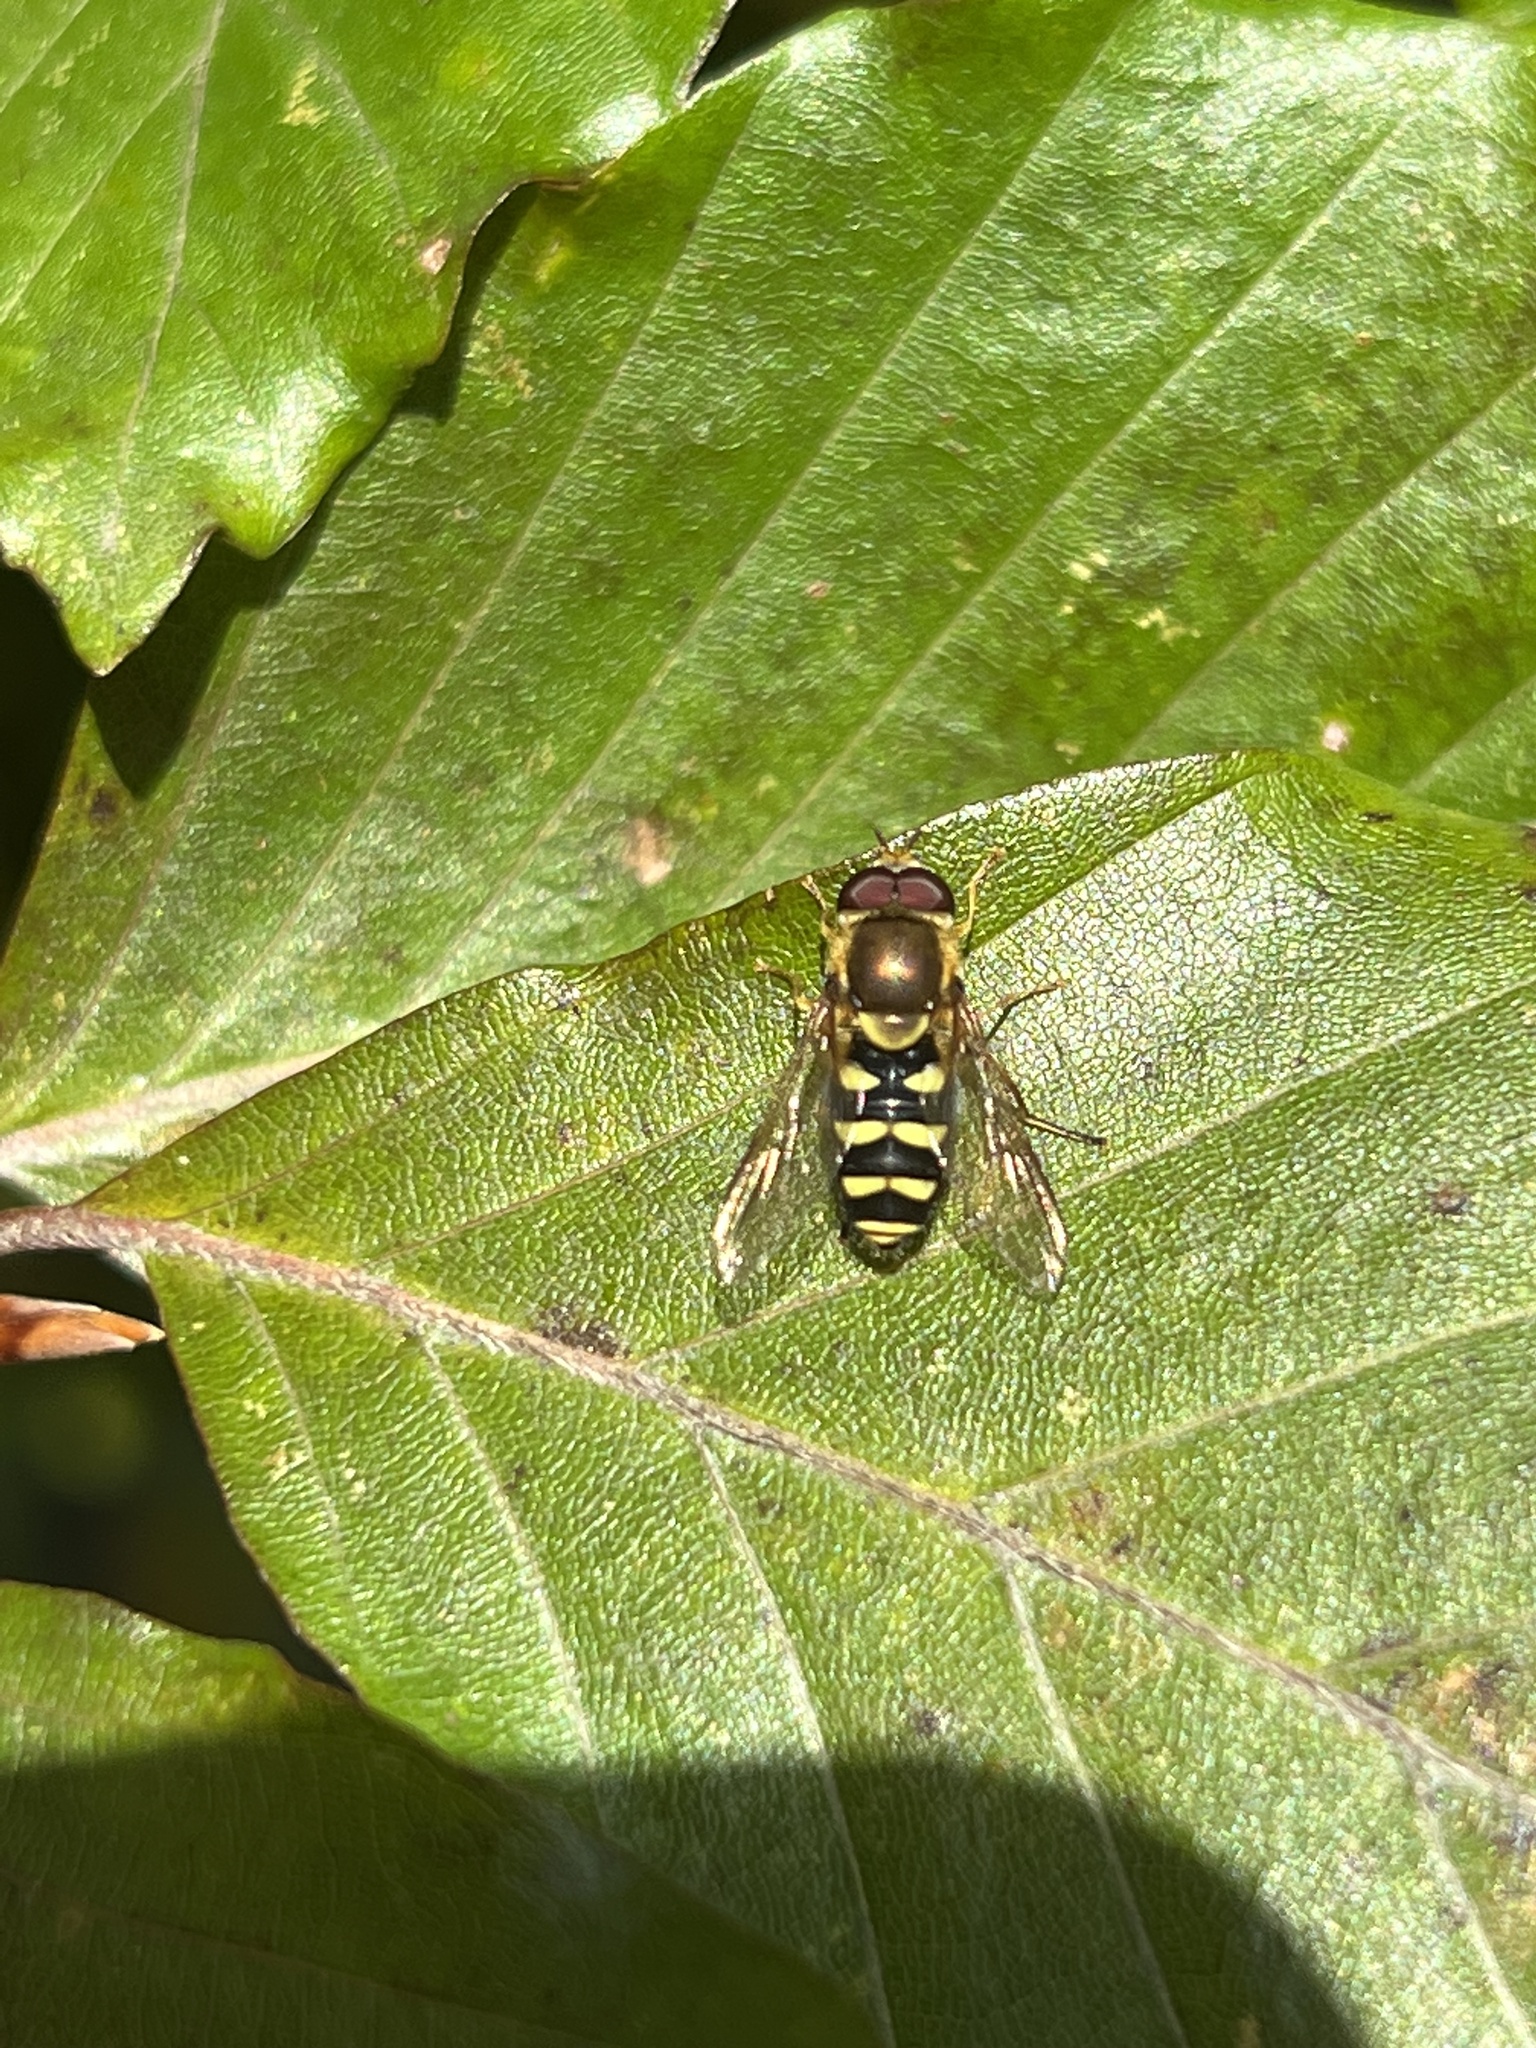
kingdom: Animalia
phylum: Arthropoda
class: Insecta
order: Diptera
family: Syrphidae
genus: Syrphus
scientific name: Syrphus opinator
